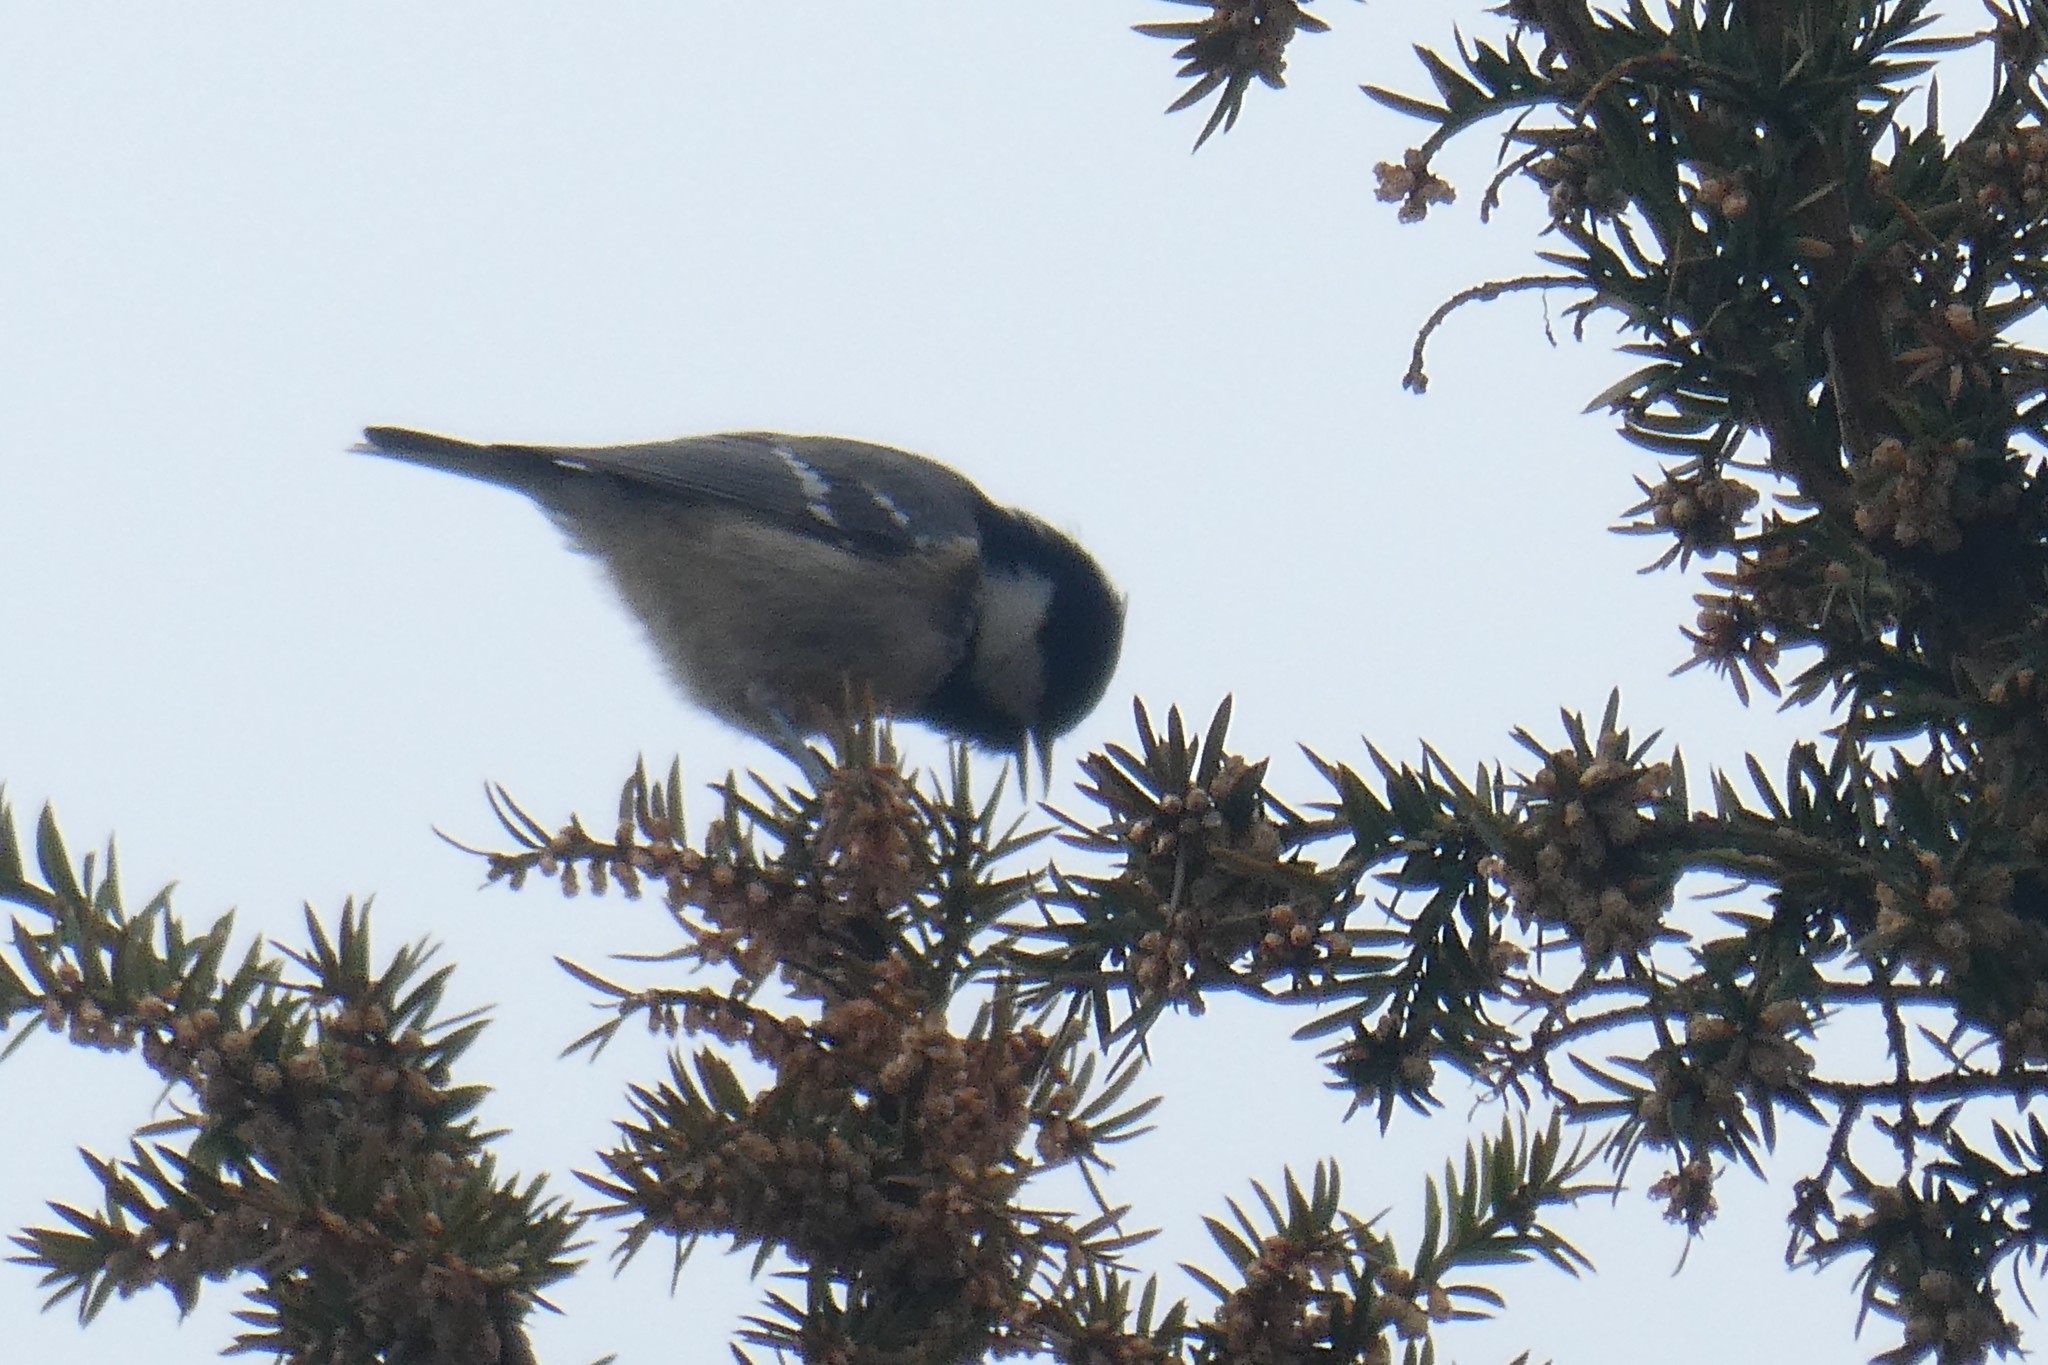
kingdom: Animalia
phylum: Chordata
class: Aves
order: Passeriformes
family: Paridae
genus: Periparus
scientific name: Periparus ater
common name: Coal tit
